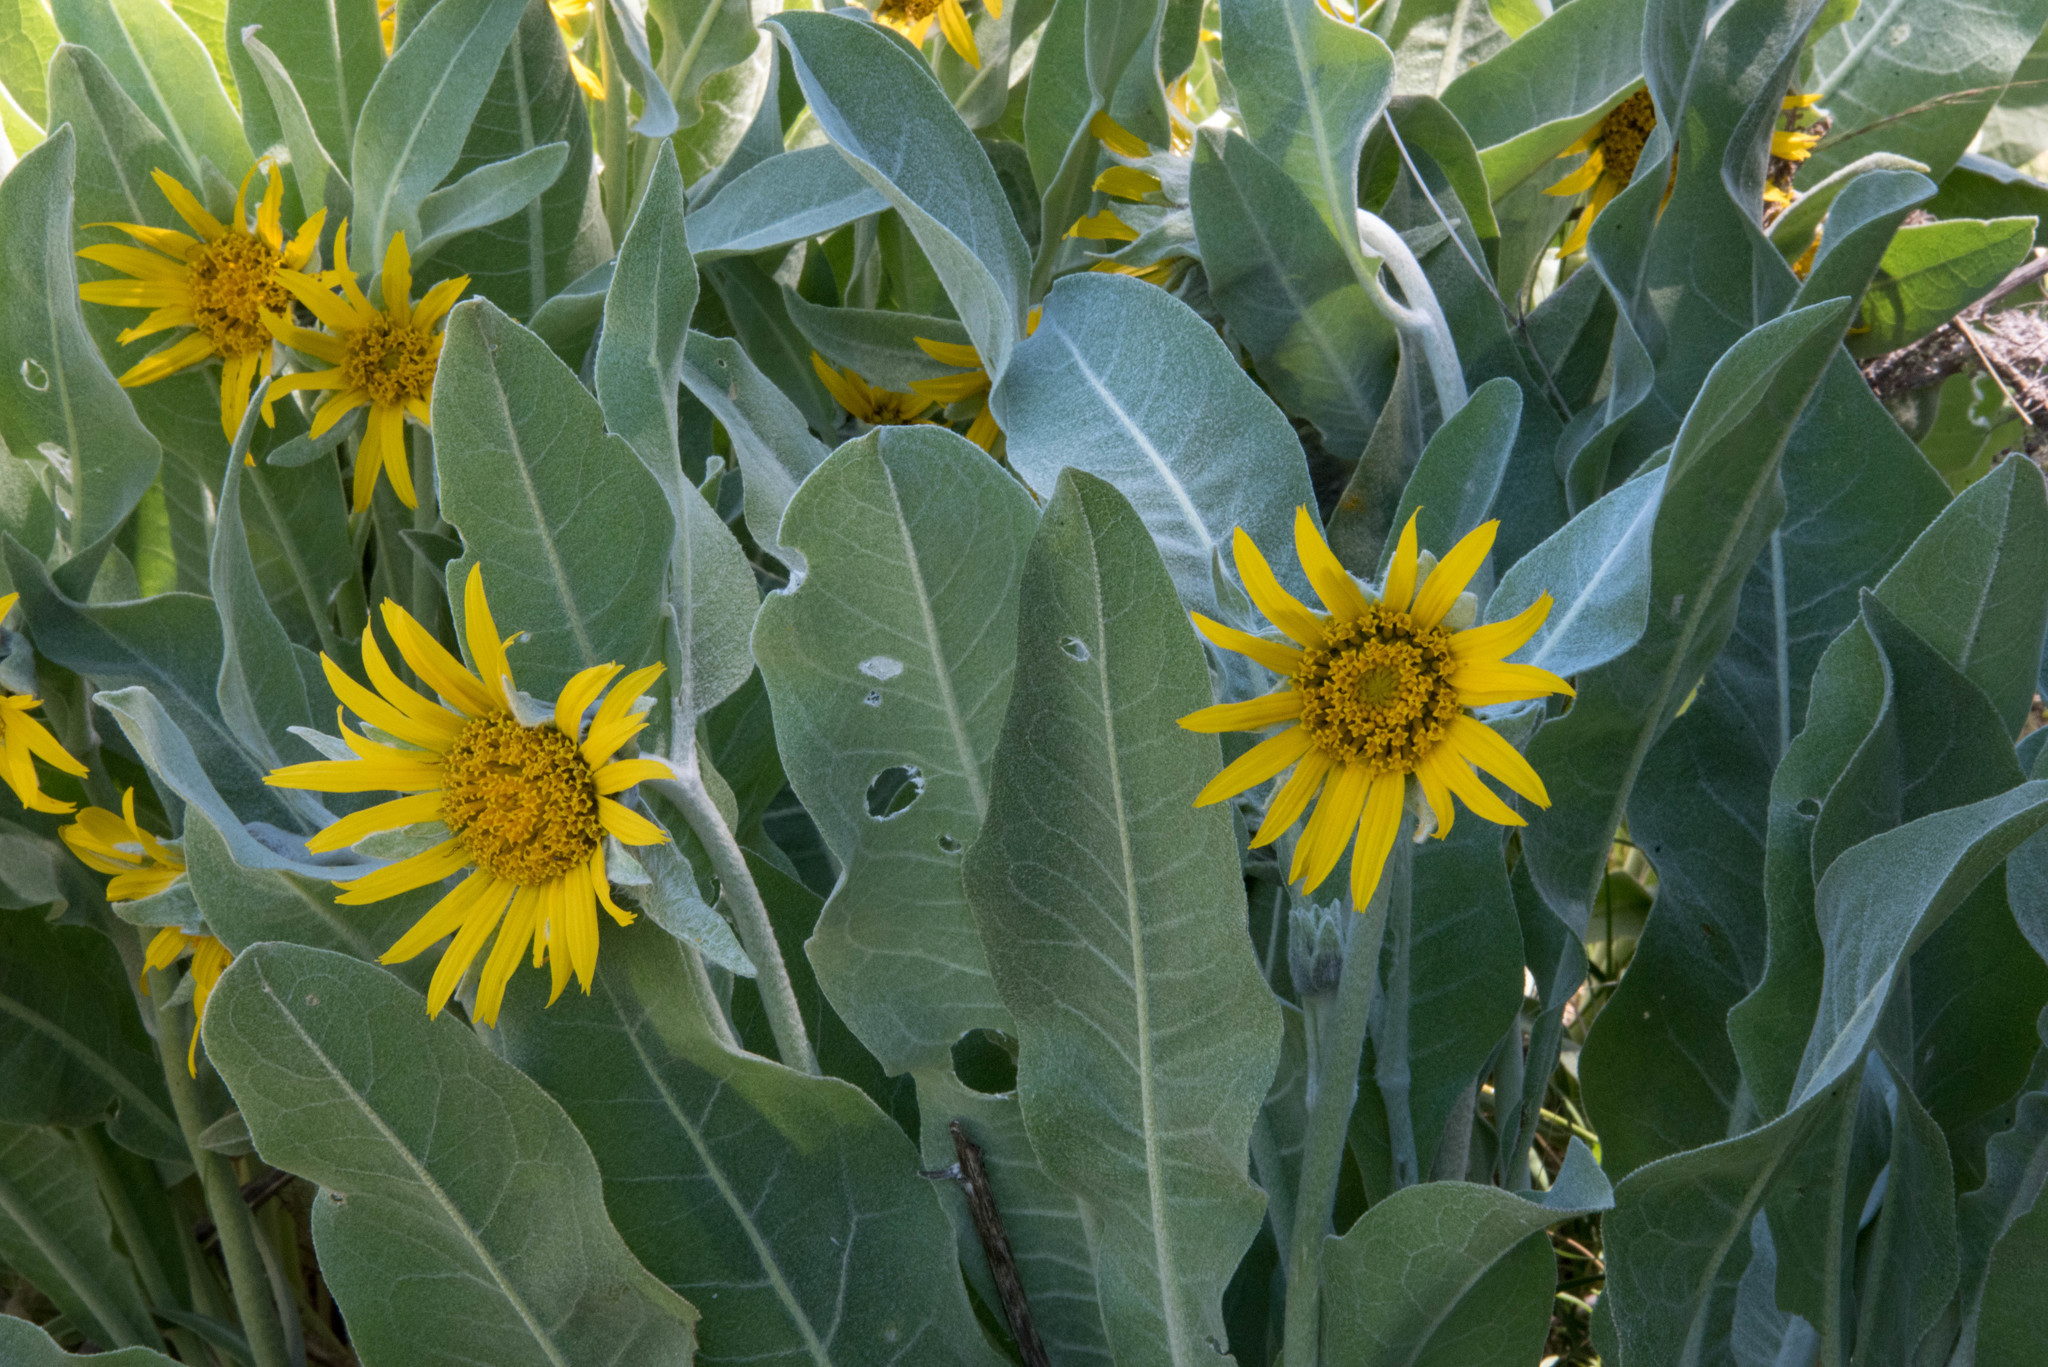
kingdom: Plantae
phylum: Tracheophyta
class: Magnoliopsida
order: Asterales
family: Asteraceae
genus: Wyethia
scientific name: Wyethia helenioides
